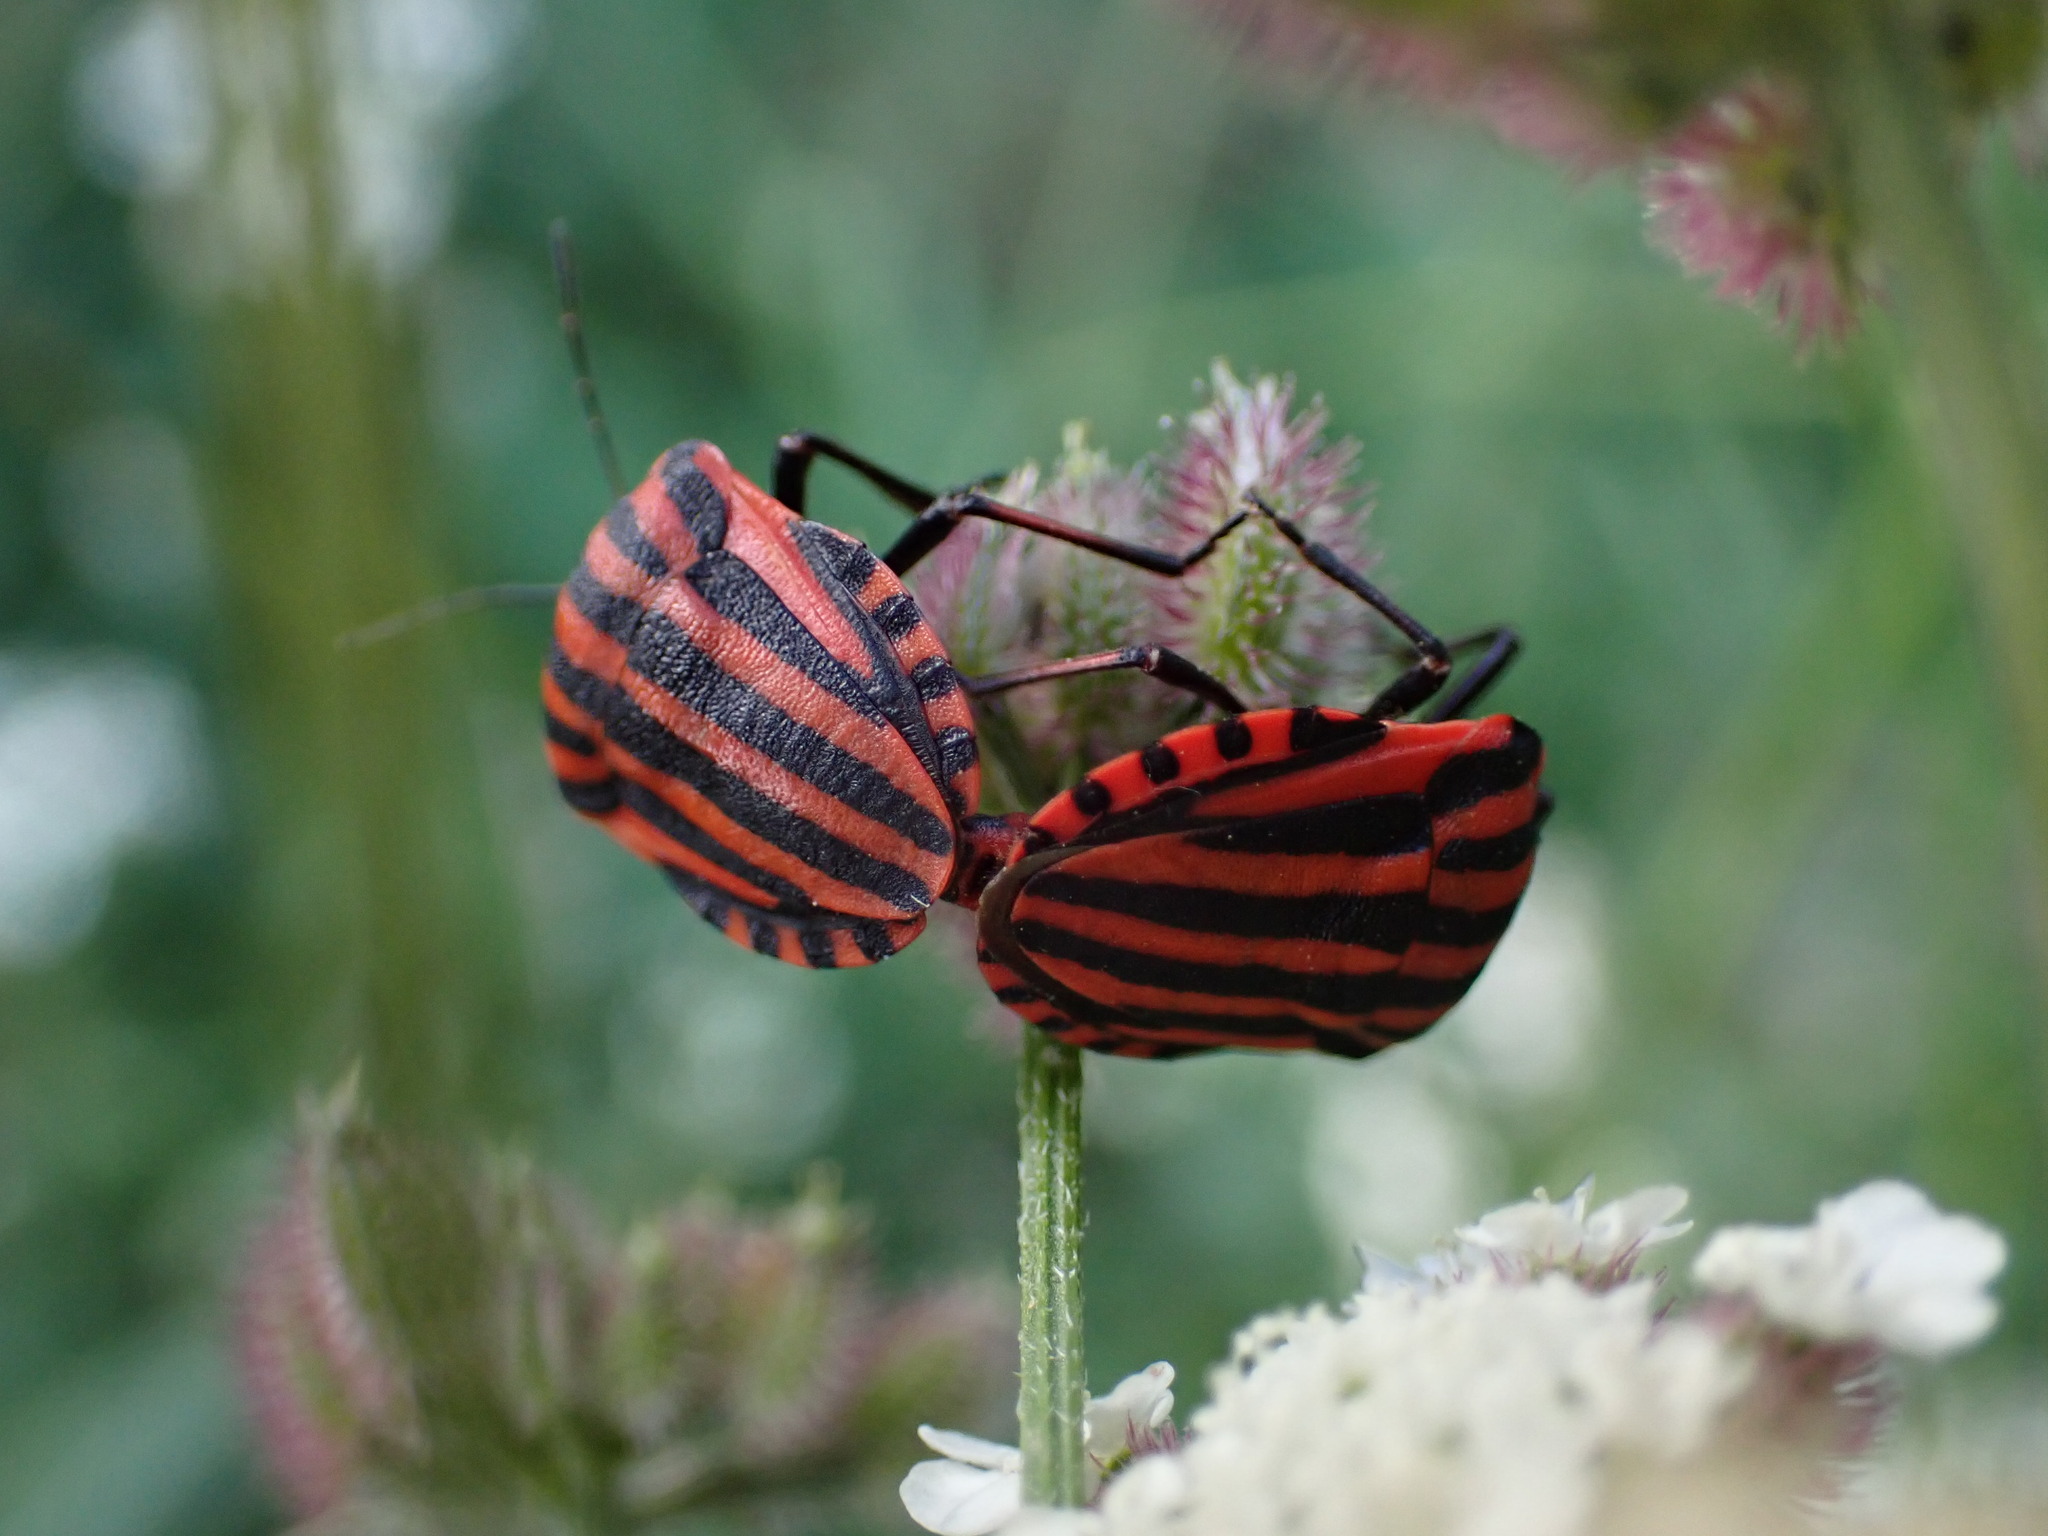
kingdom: Animalia
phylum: Arthropoda
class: Insecta
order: Hemiptera
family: Pentatomidae
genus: Graphosoma
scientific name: Graphosoma italicum
